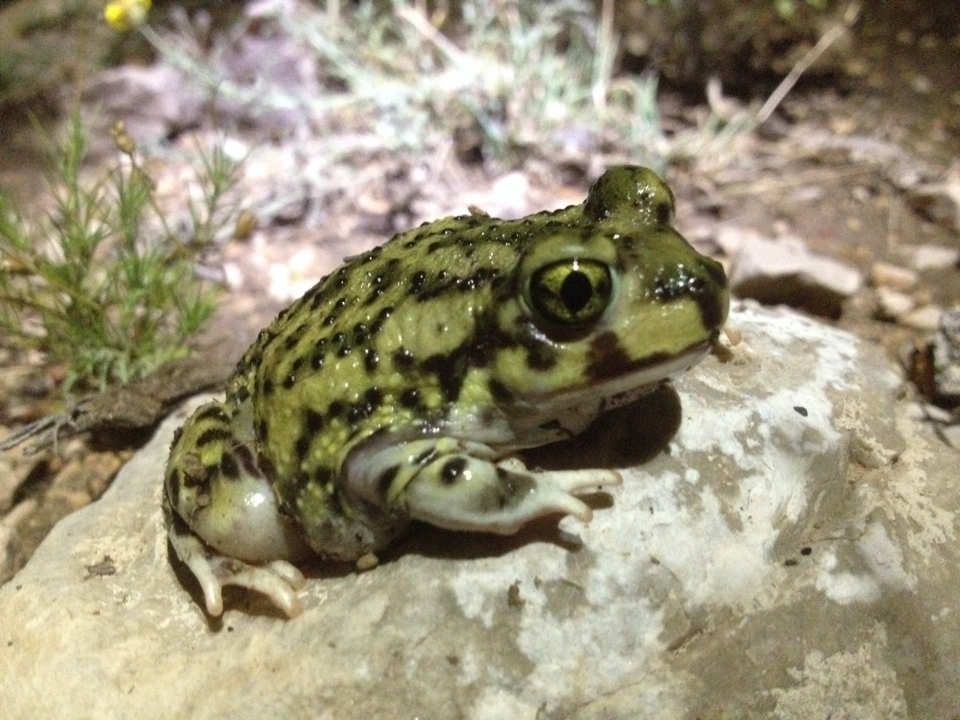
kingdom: Animalia
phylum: Chordata
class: Amphibia
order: Anura
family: Scaphiopodidae
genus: Scaphiopus
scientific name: Scaphiopus couchii
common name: Couch's spadefoot toad
